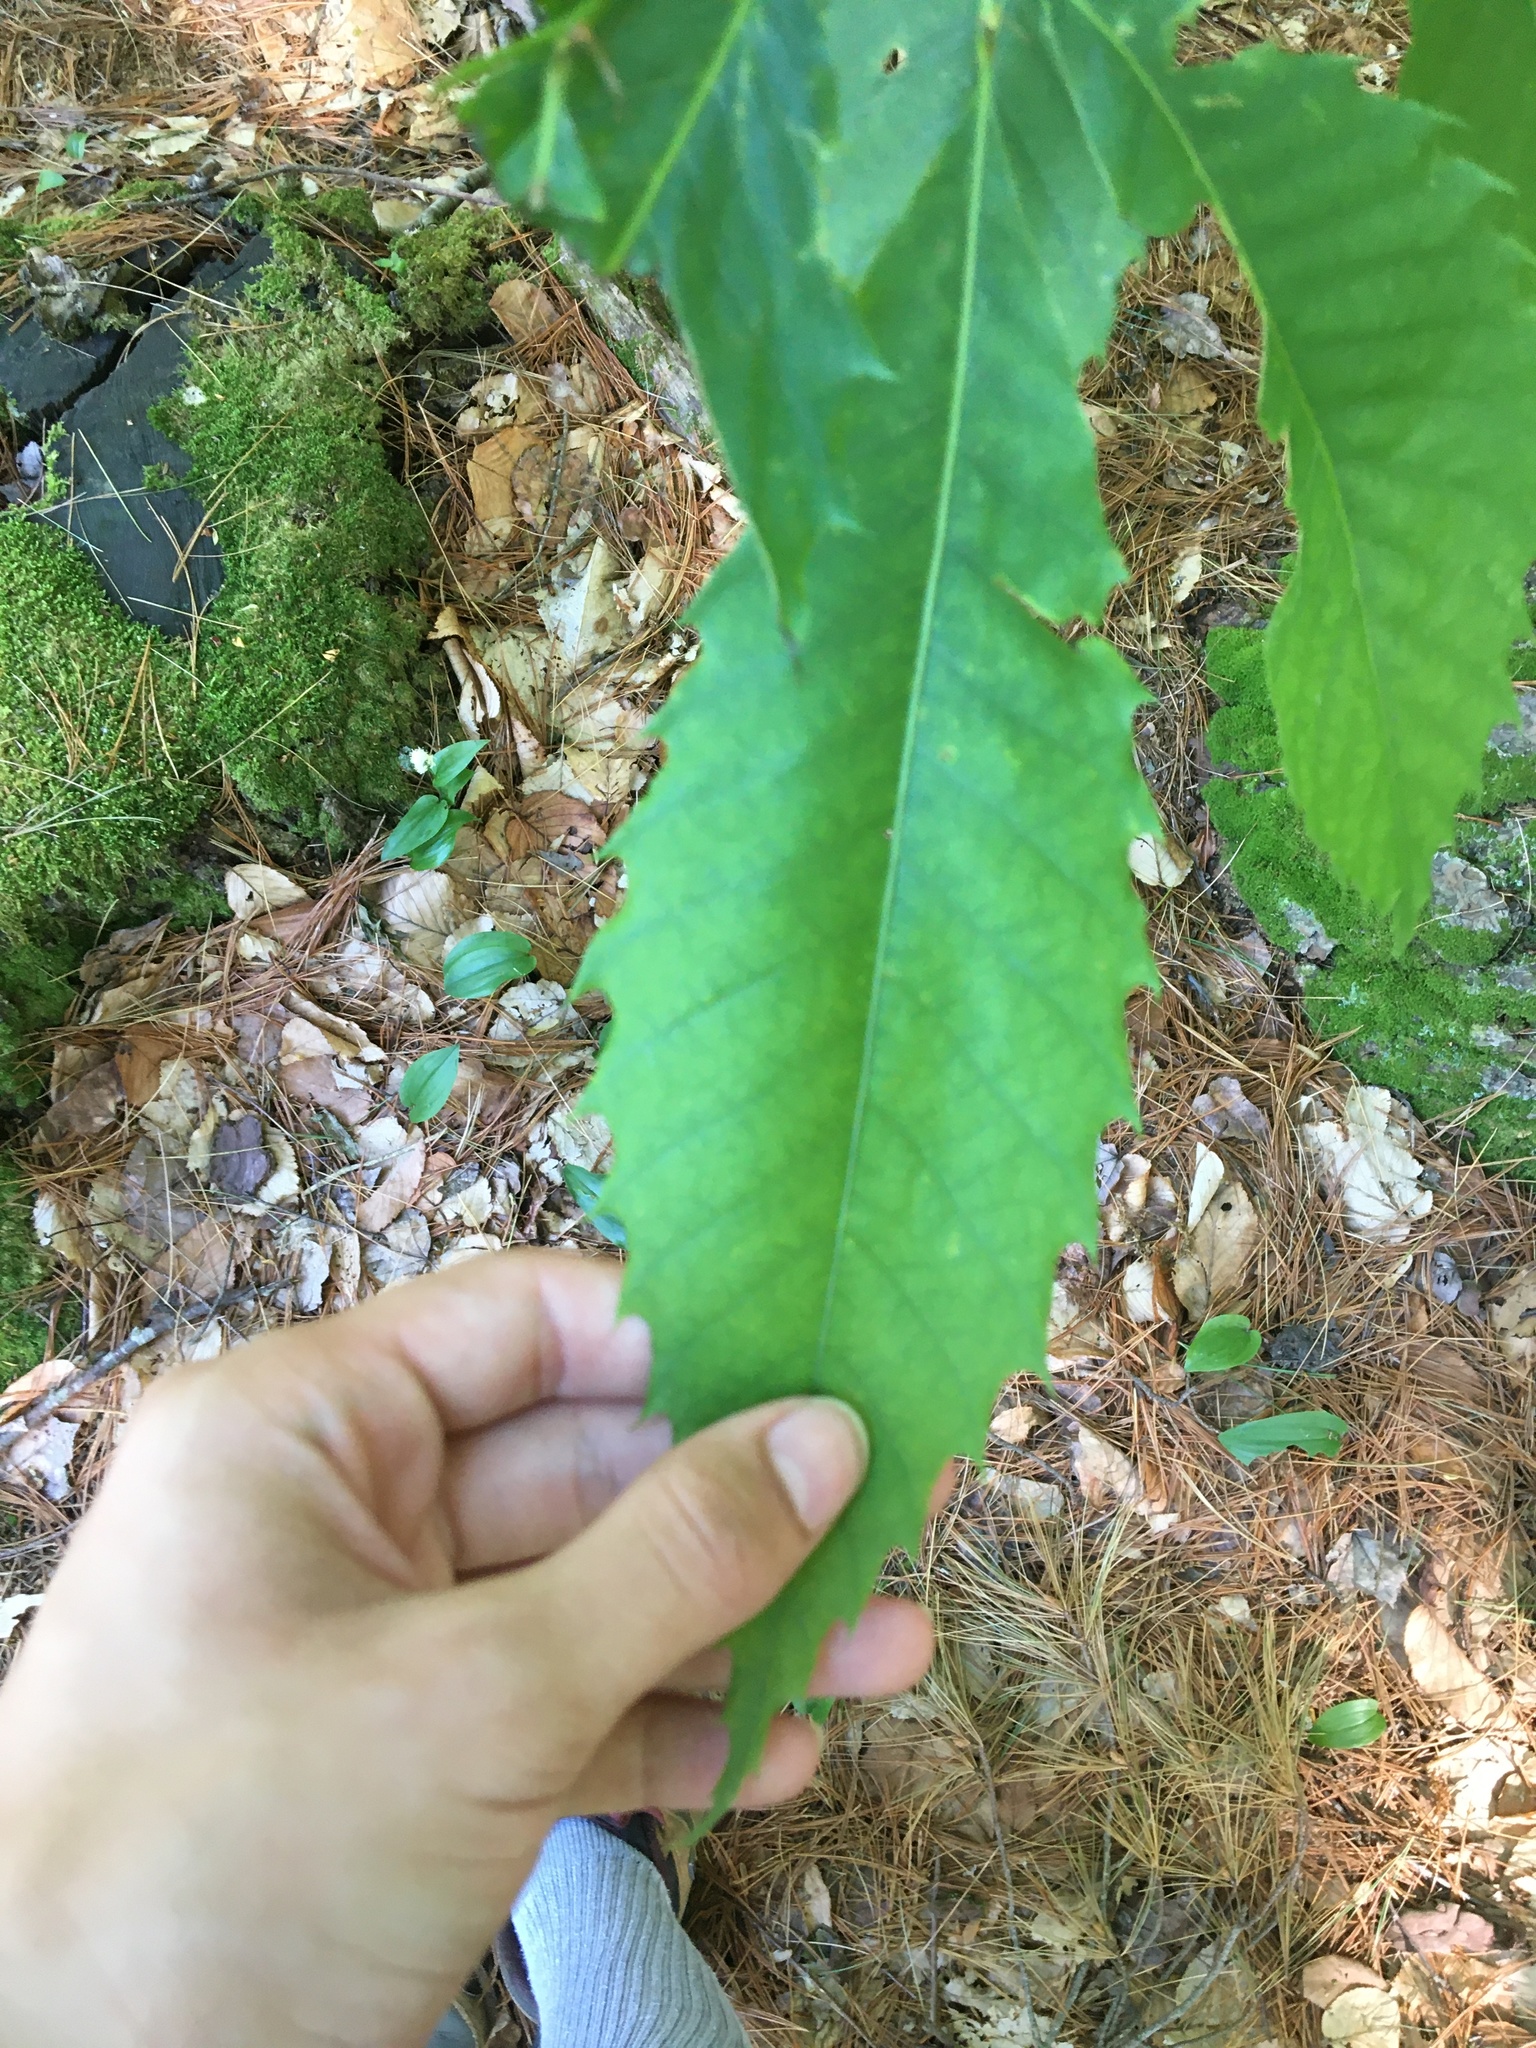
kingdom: Plantae
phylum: Tracheophyta
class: Magnoliopsida
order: Fagales
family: Fagaceae
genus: Castanea
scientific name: Castanea dentata
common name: American chestnut
